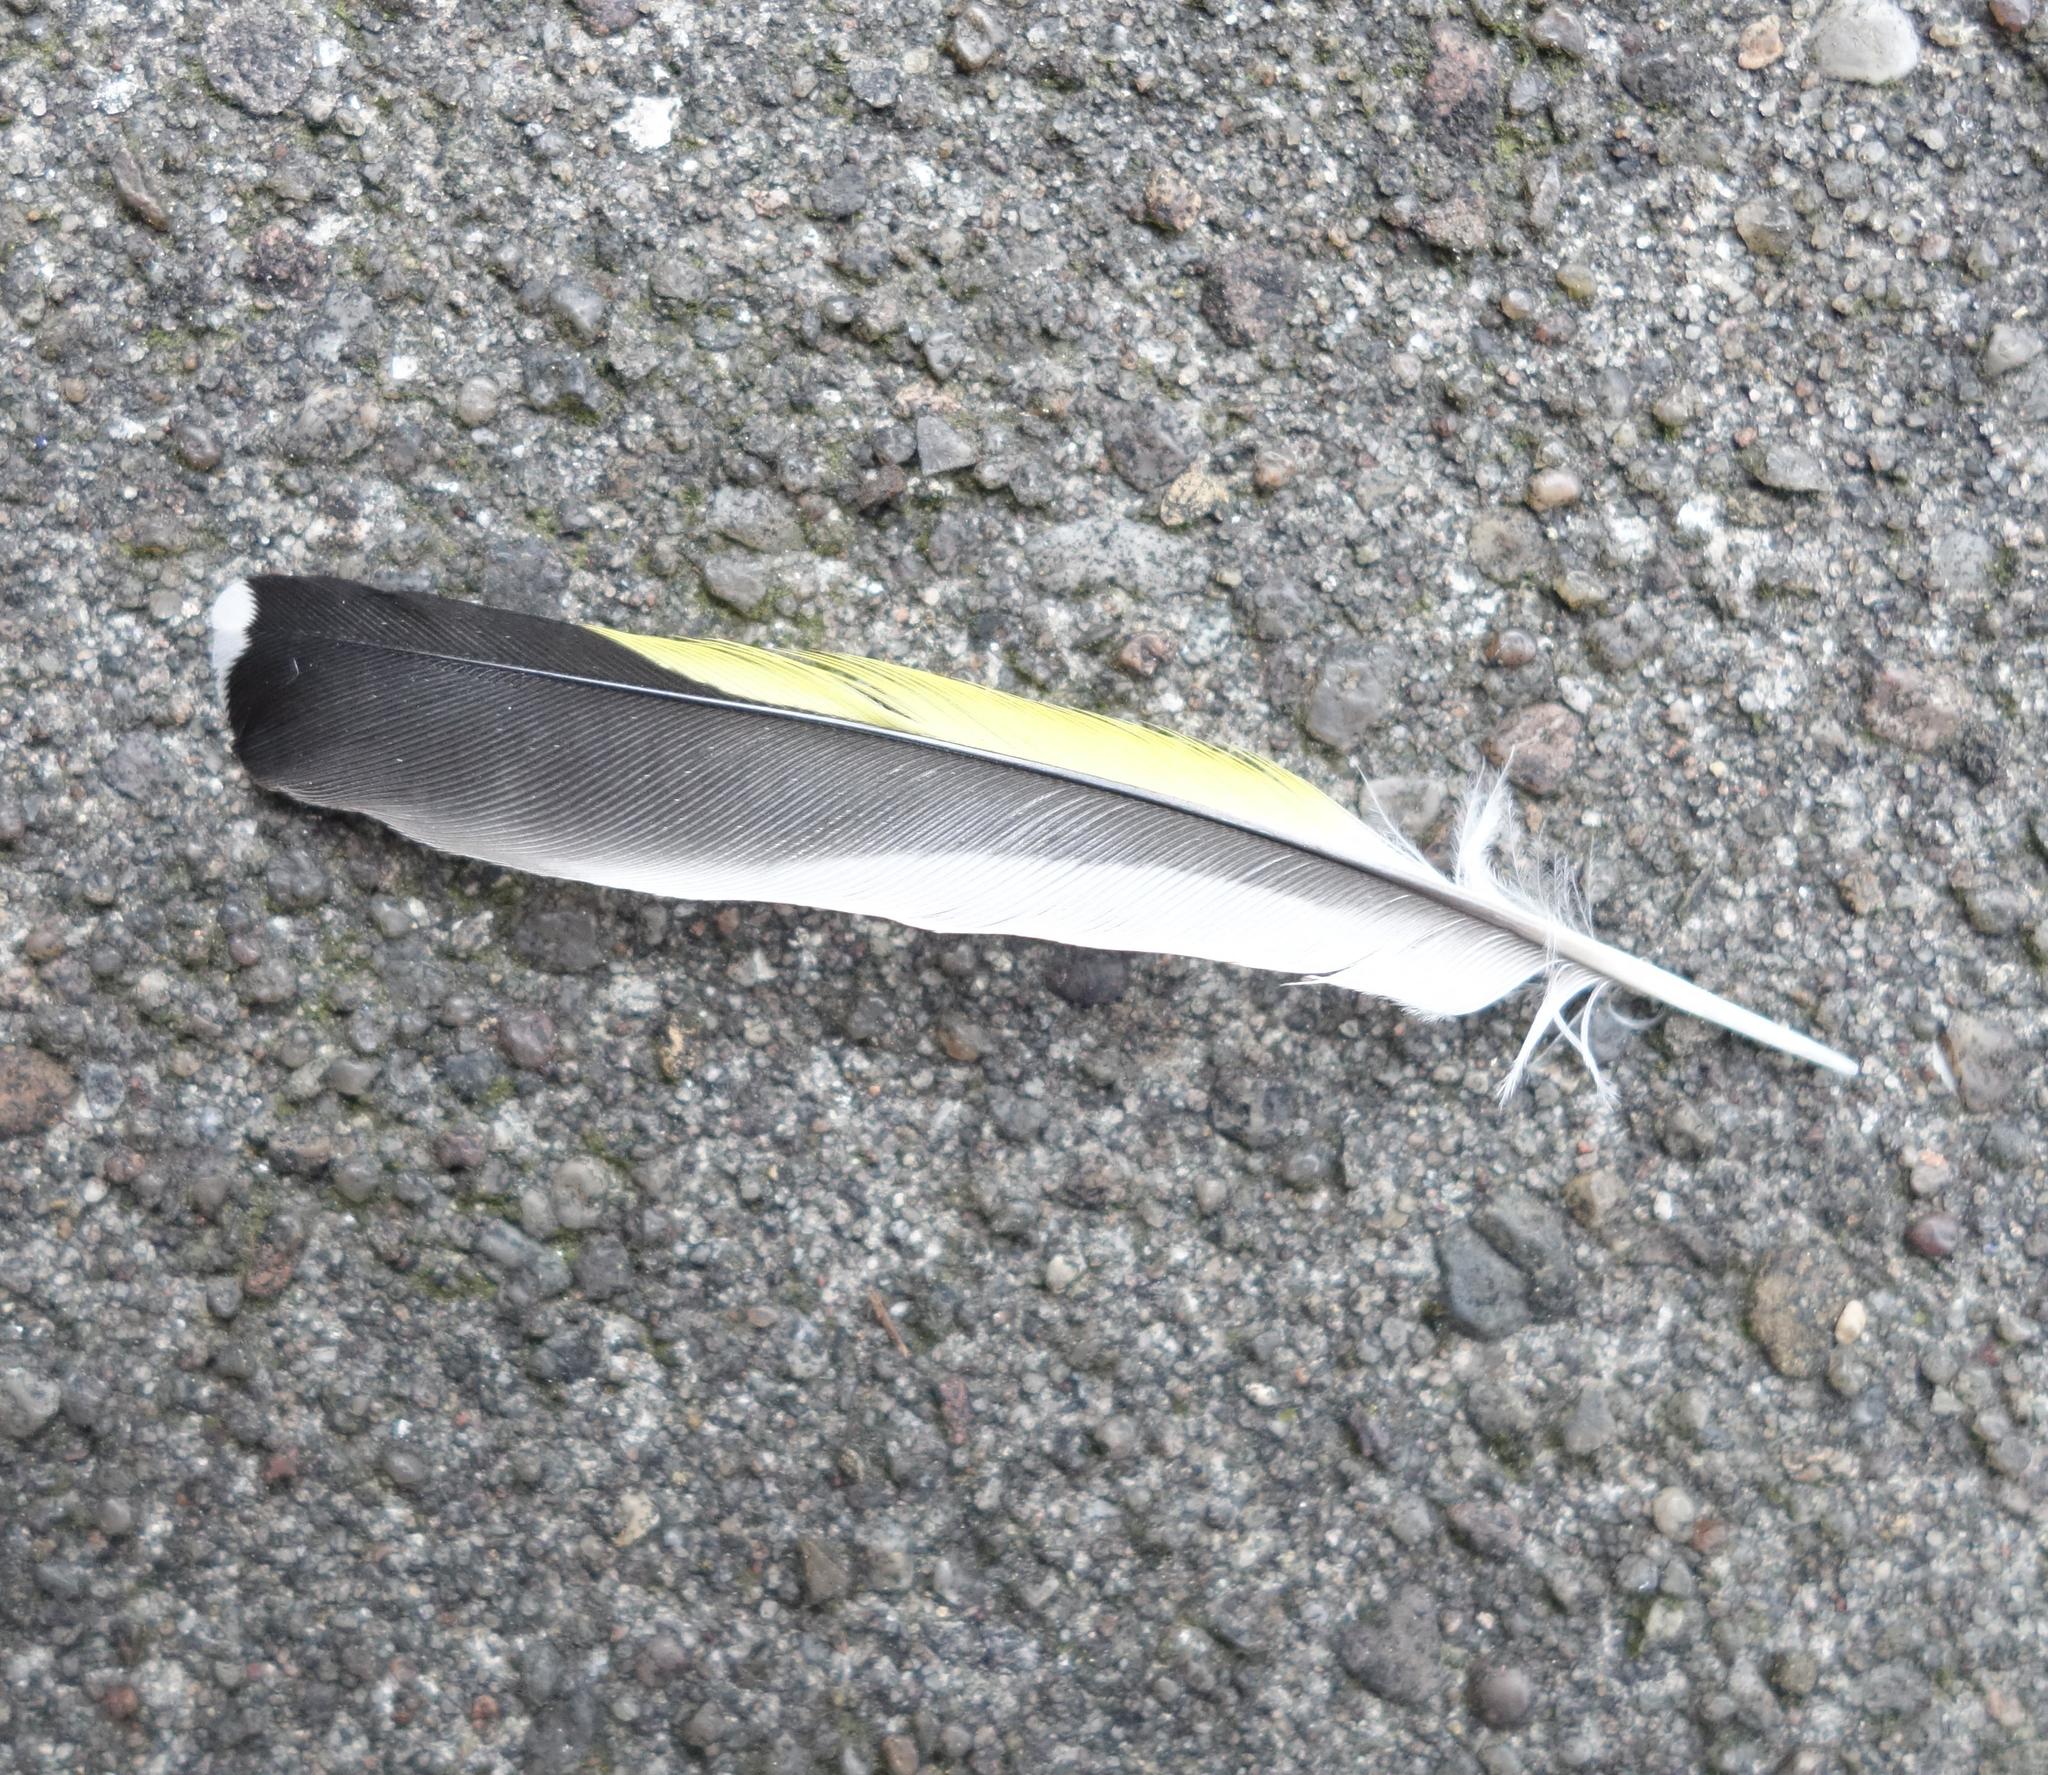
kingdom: Animalia
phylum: Chordata
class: Aves
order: Passeriformes
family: Fringillidae
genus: Carduelis
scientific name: Carduelis carduelis
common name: European goldfinch
